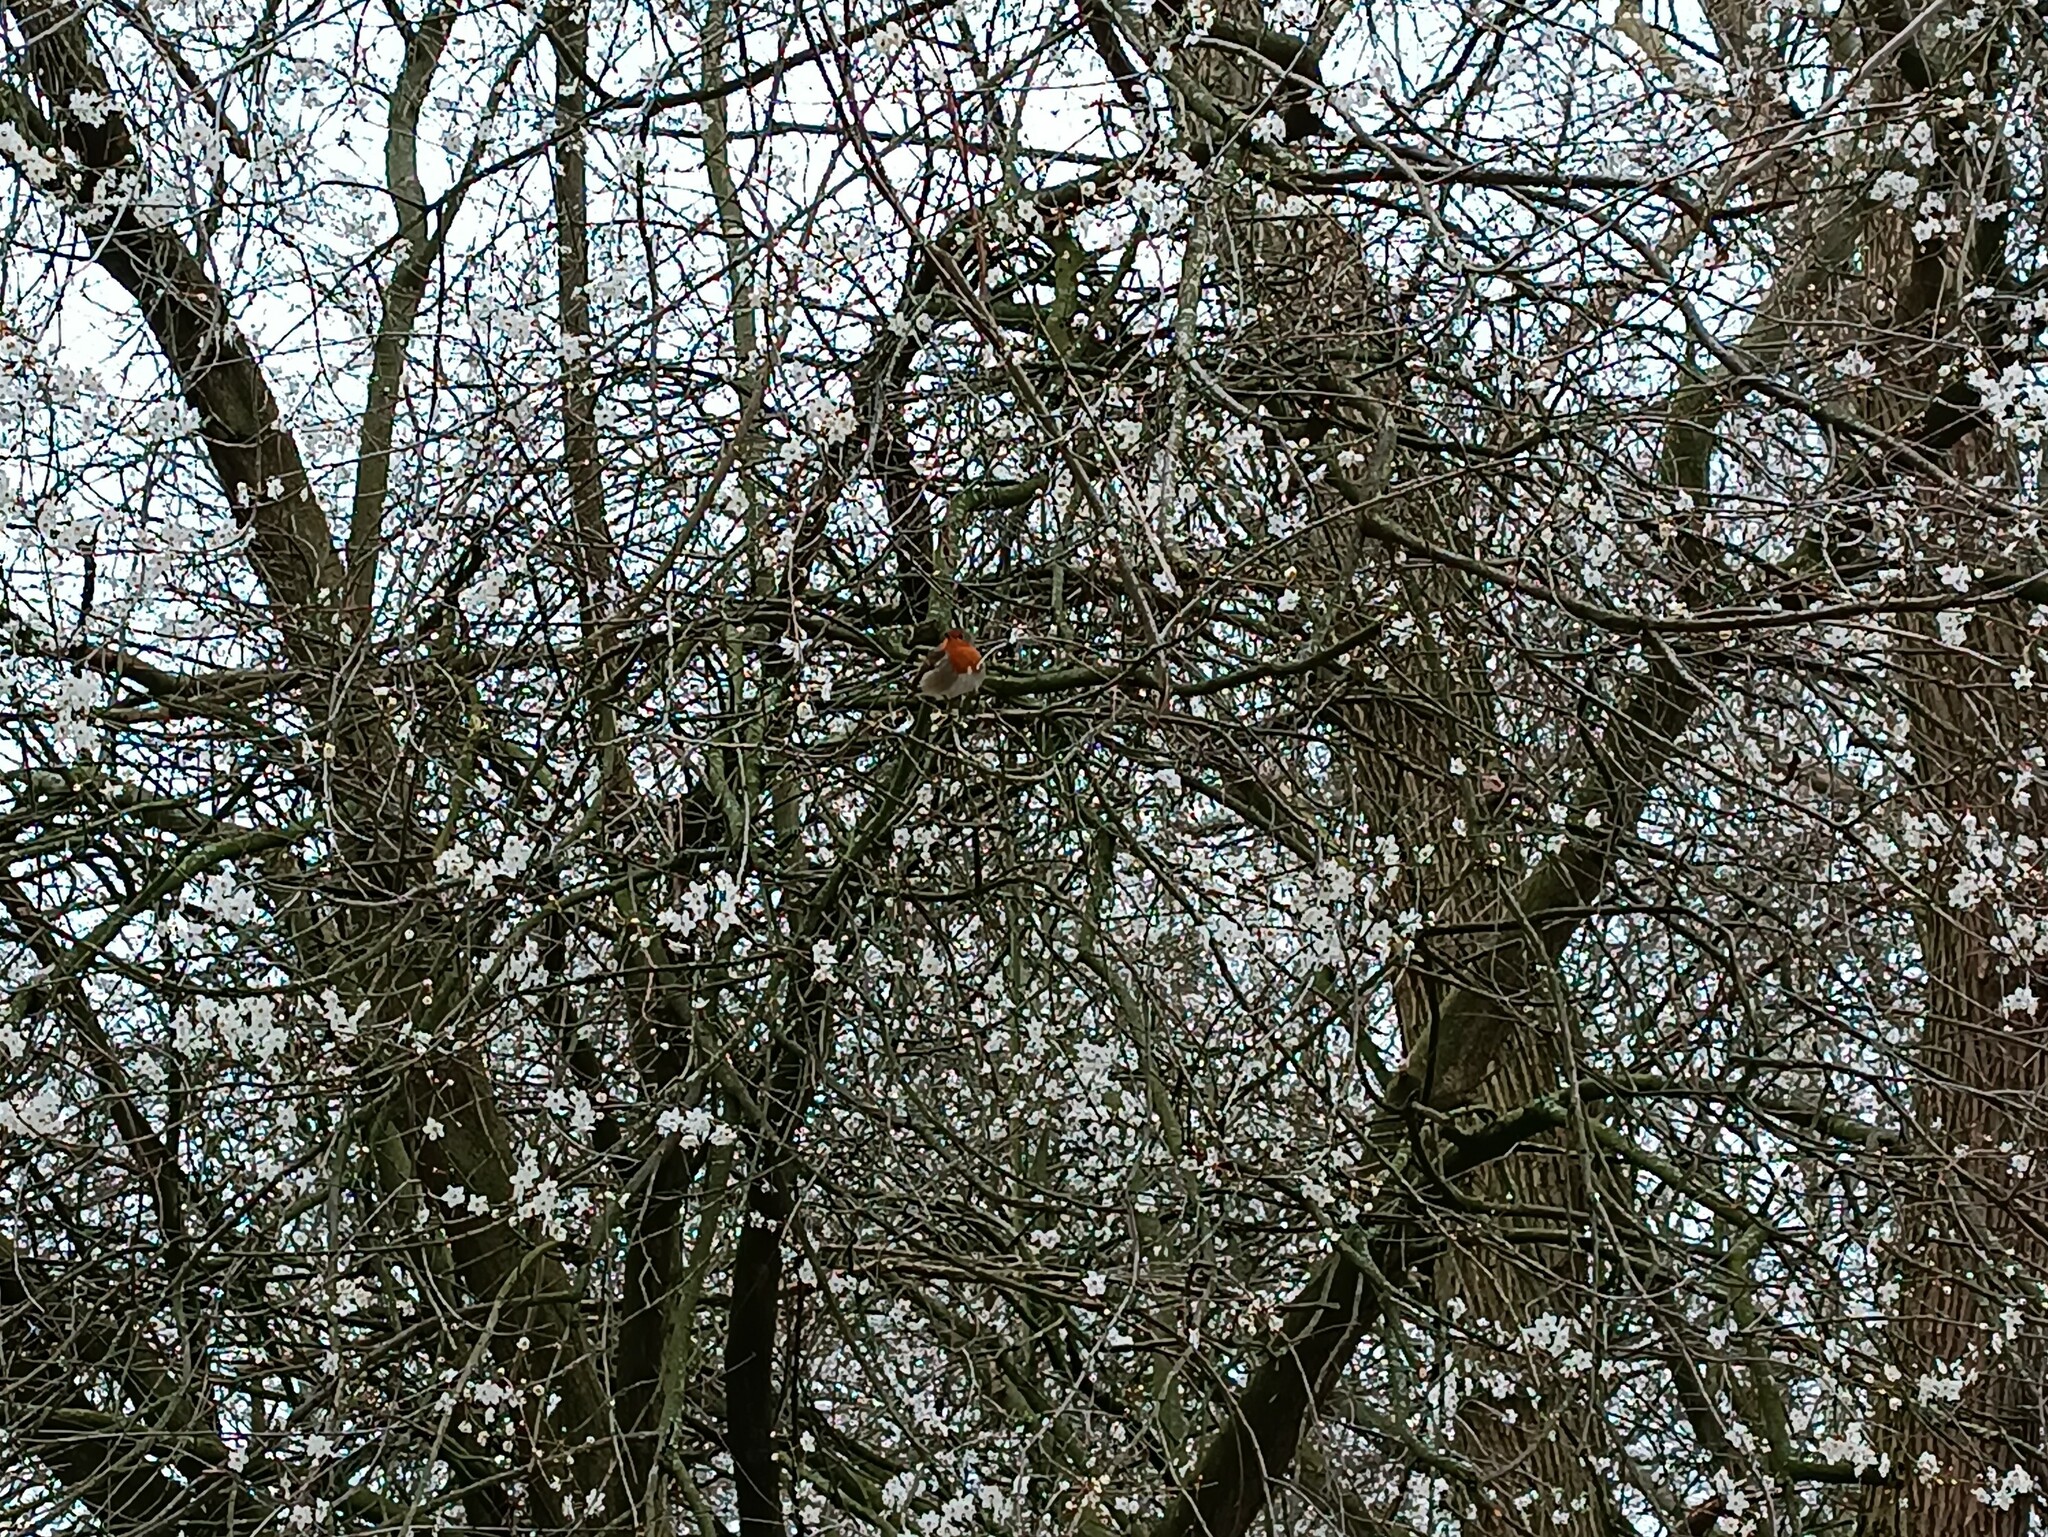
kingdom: Animalia
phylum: Chordata
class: Aves
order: Passeriformes
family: Muscicapidae
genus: Erithacus
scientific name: Erithacus rubecula
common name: European robin
